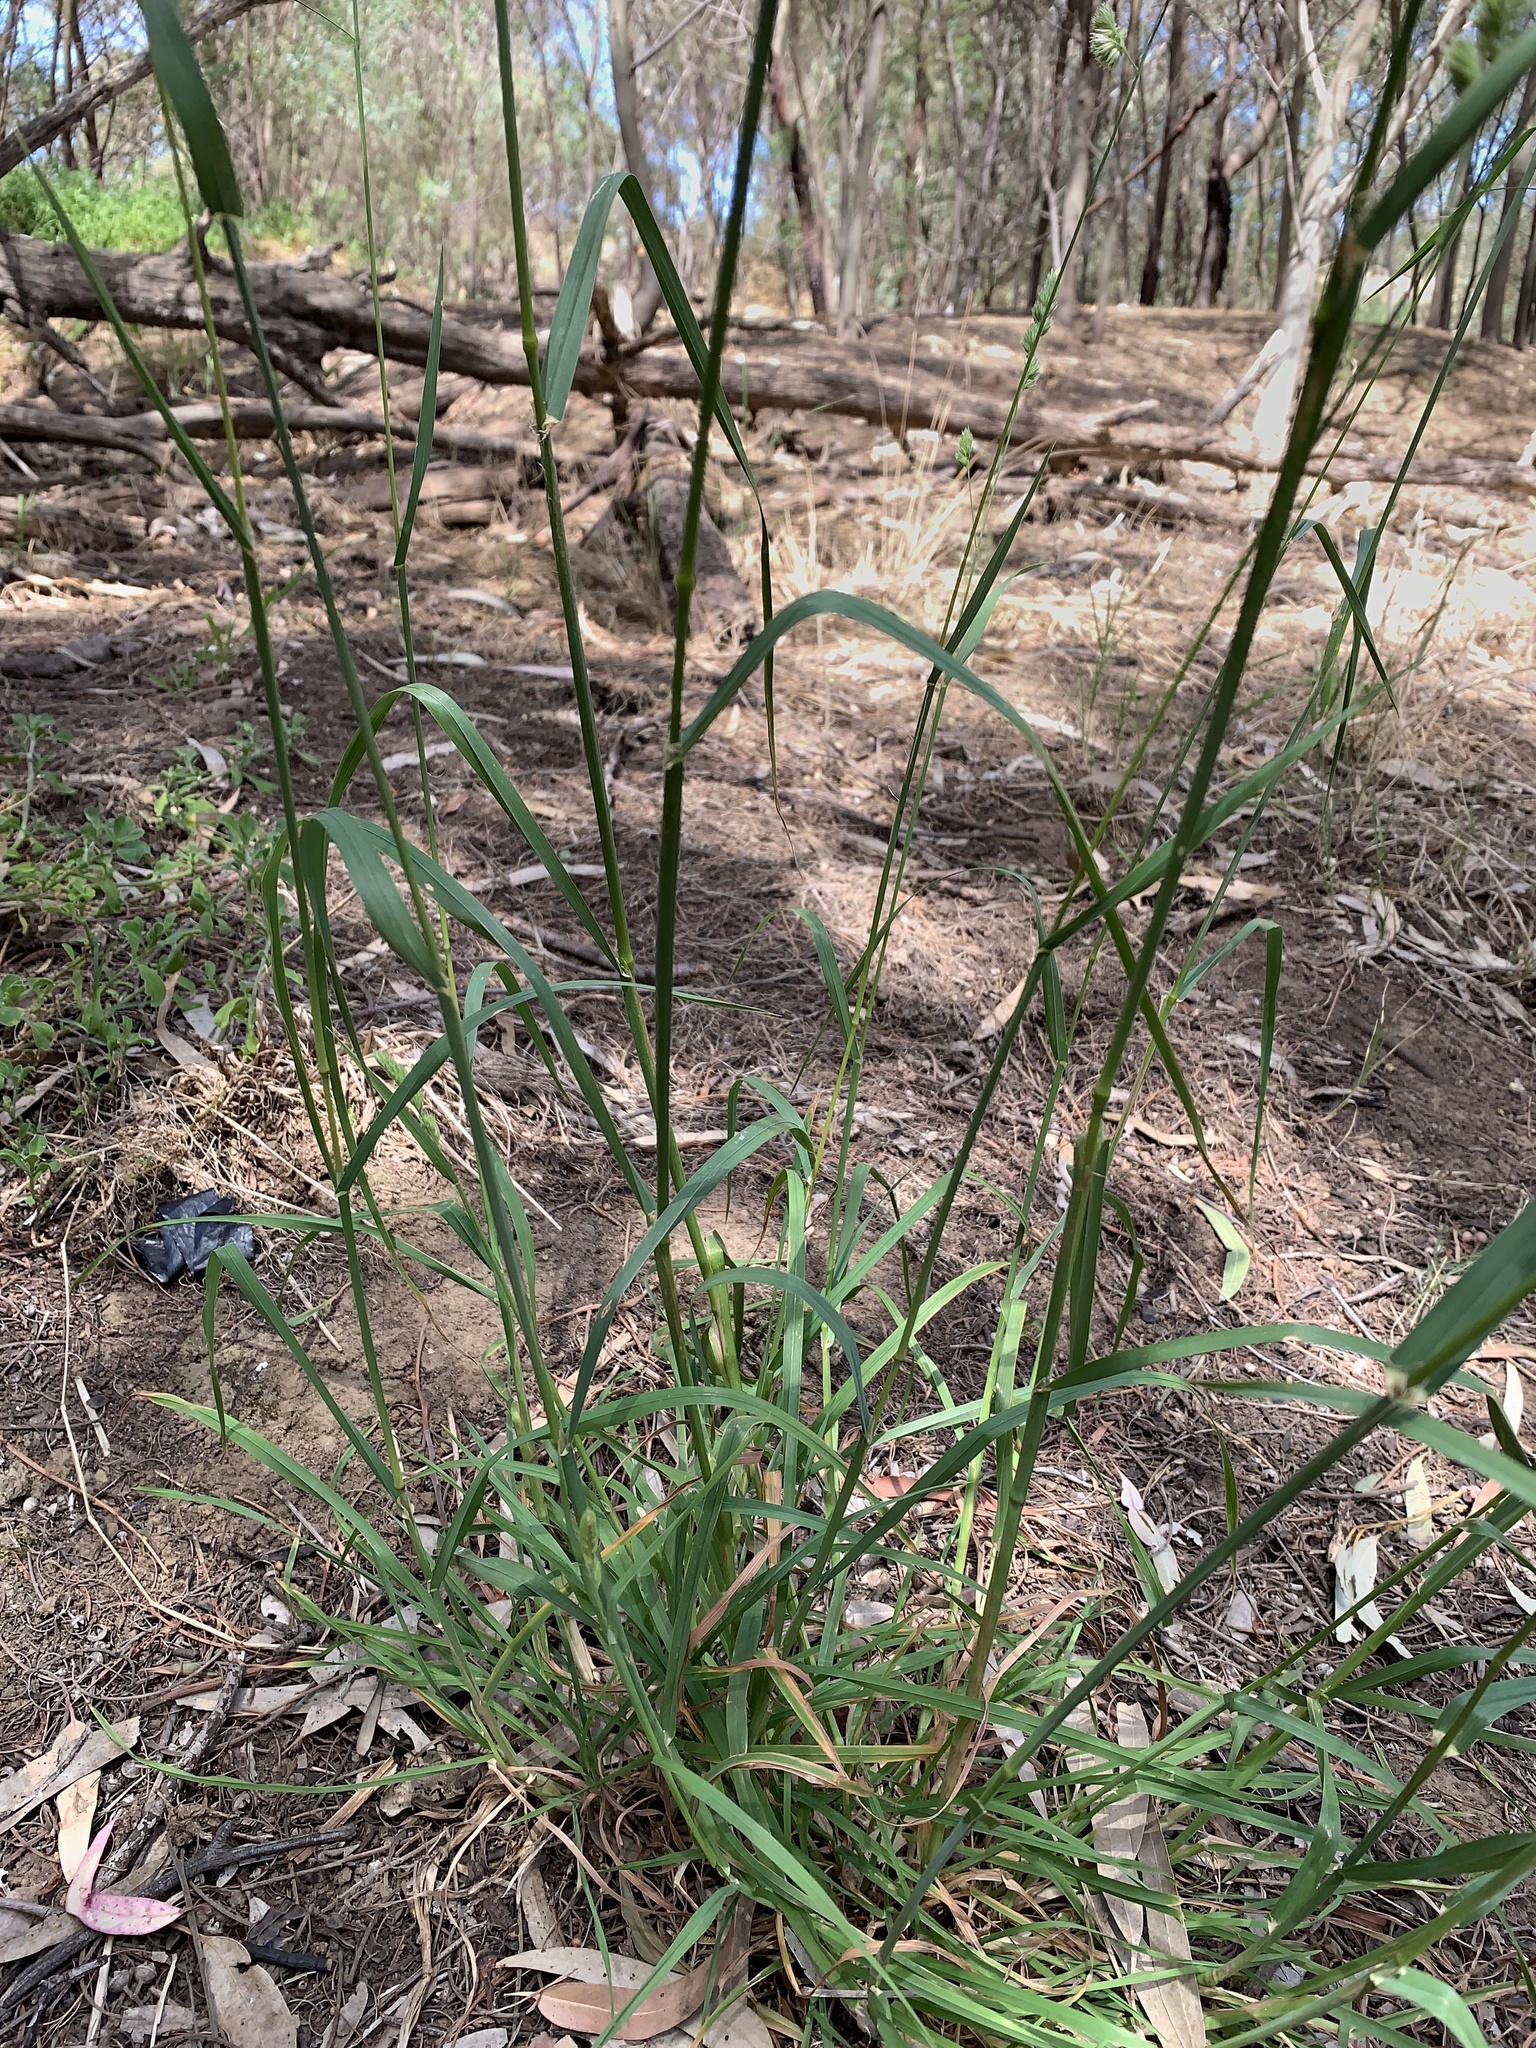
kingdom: Plantae
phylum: Tracheophyta
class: Liliopsida
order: Poales
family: Poaceae
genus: Dactylis
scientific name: Dactylis glomerata
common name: Orchardgrass
